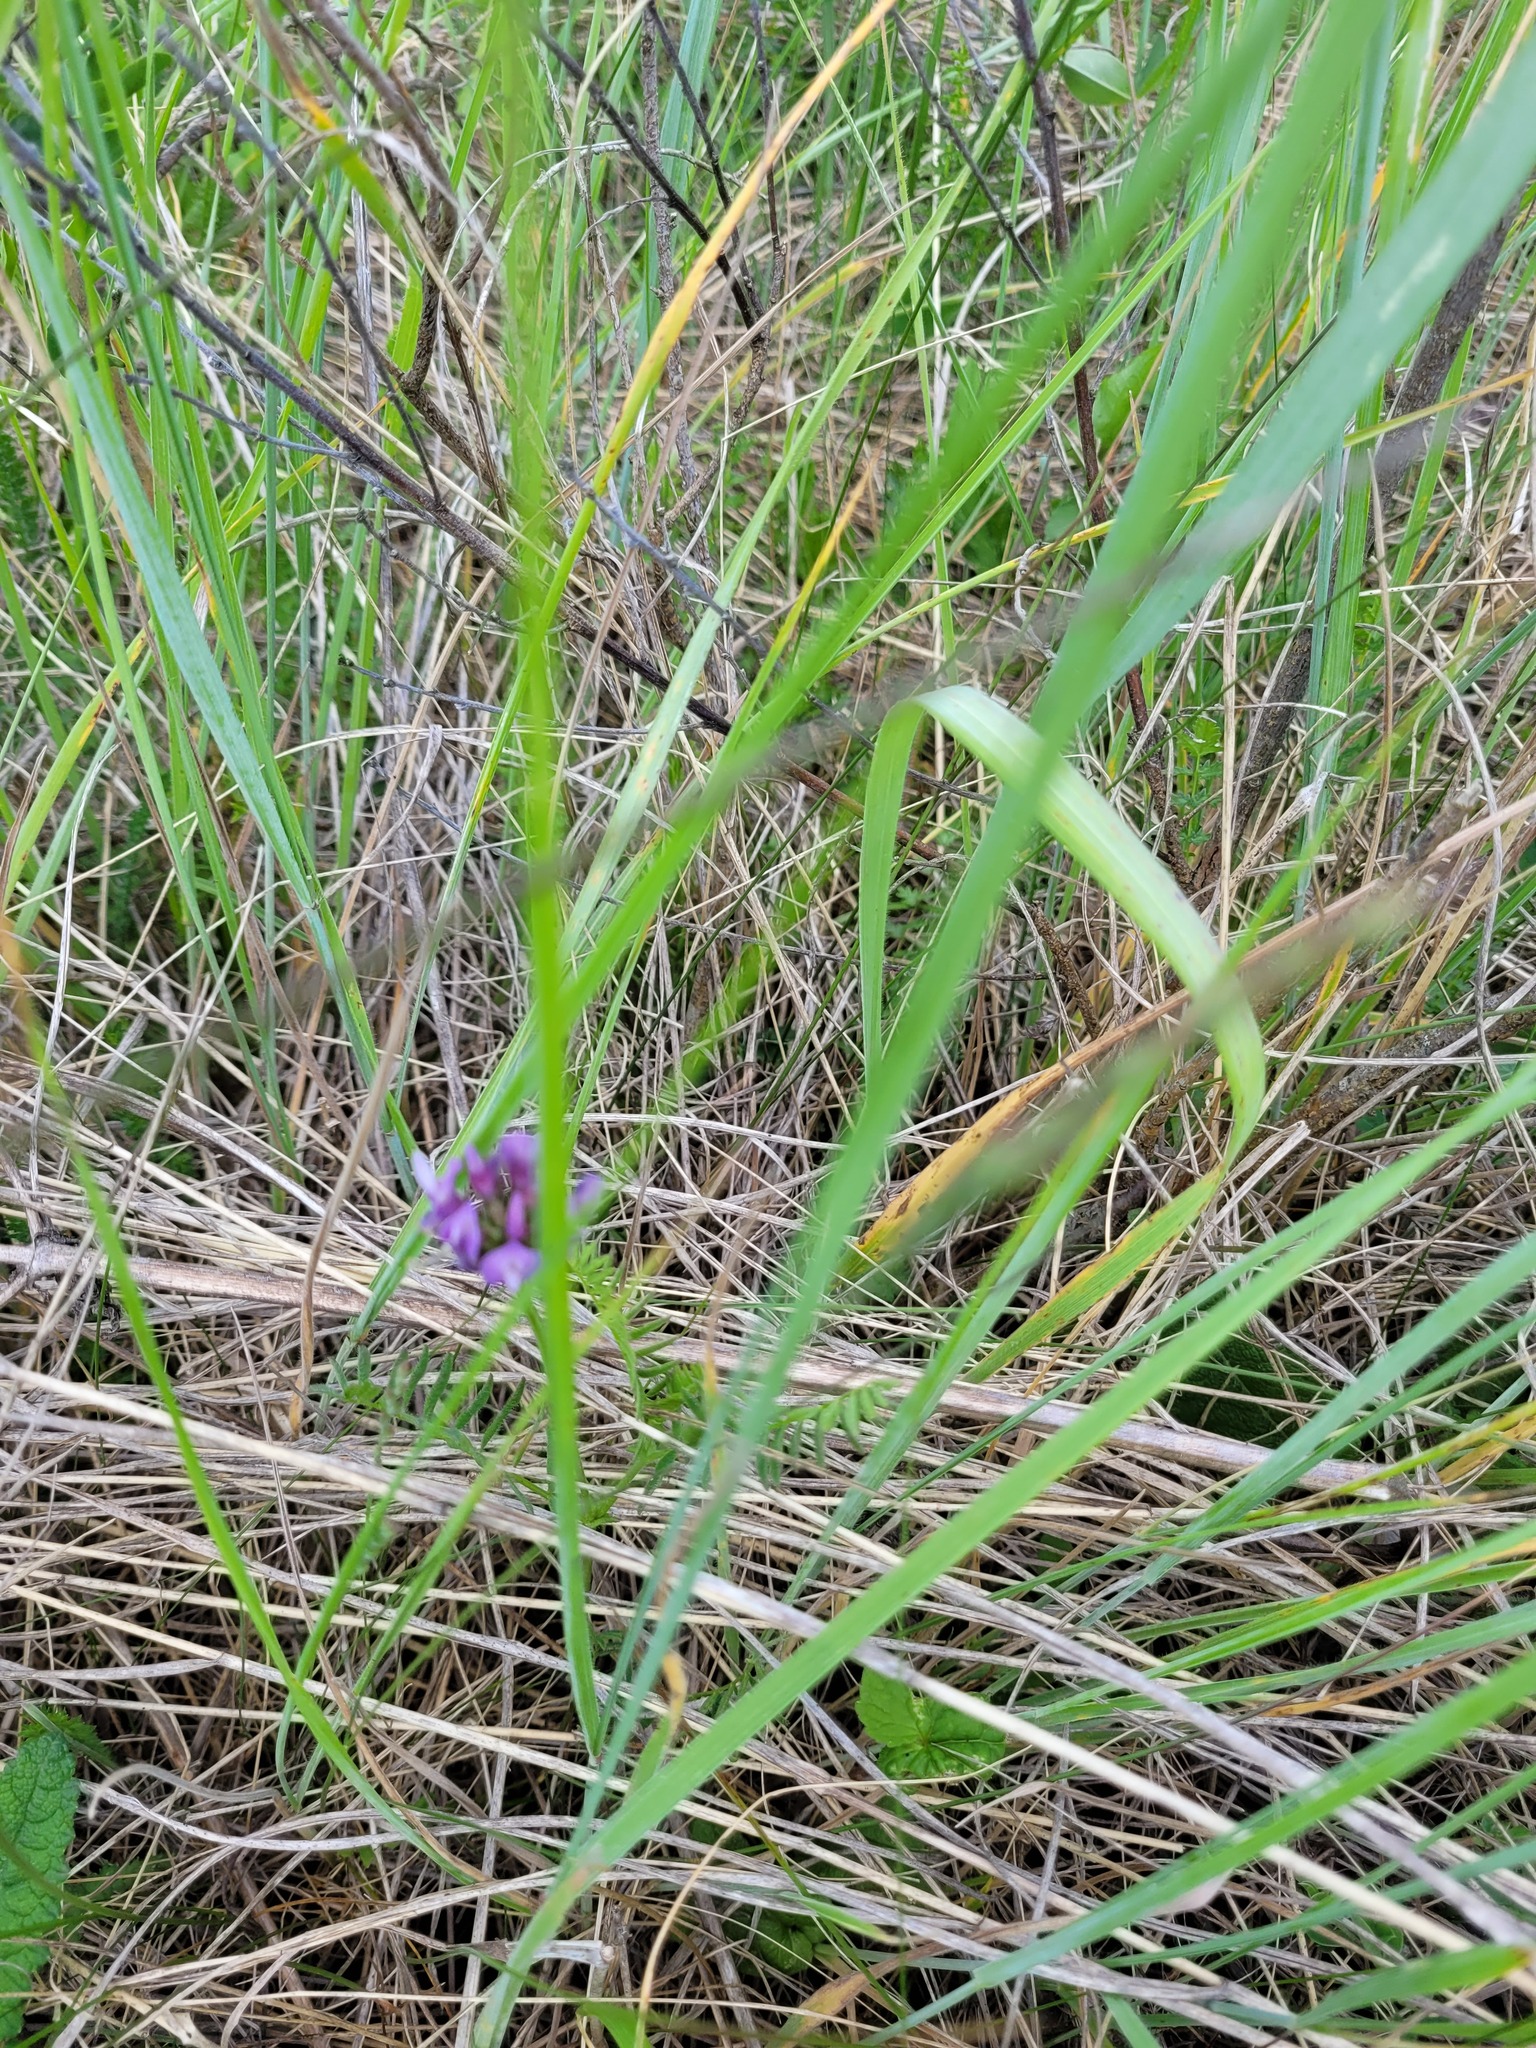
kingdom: Plantae
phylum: Tracheophyta
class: Magnoliopsida
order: Fabales
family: Fabaceae
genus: Astragalus
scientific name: Astragalus danicus
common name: Purple milk-vetch
